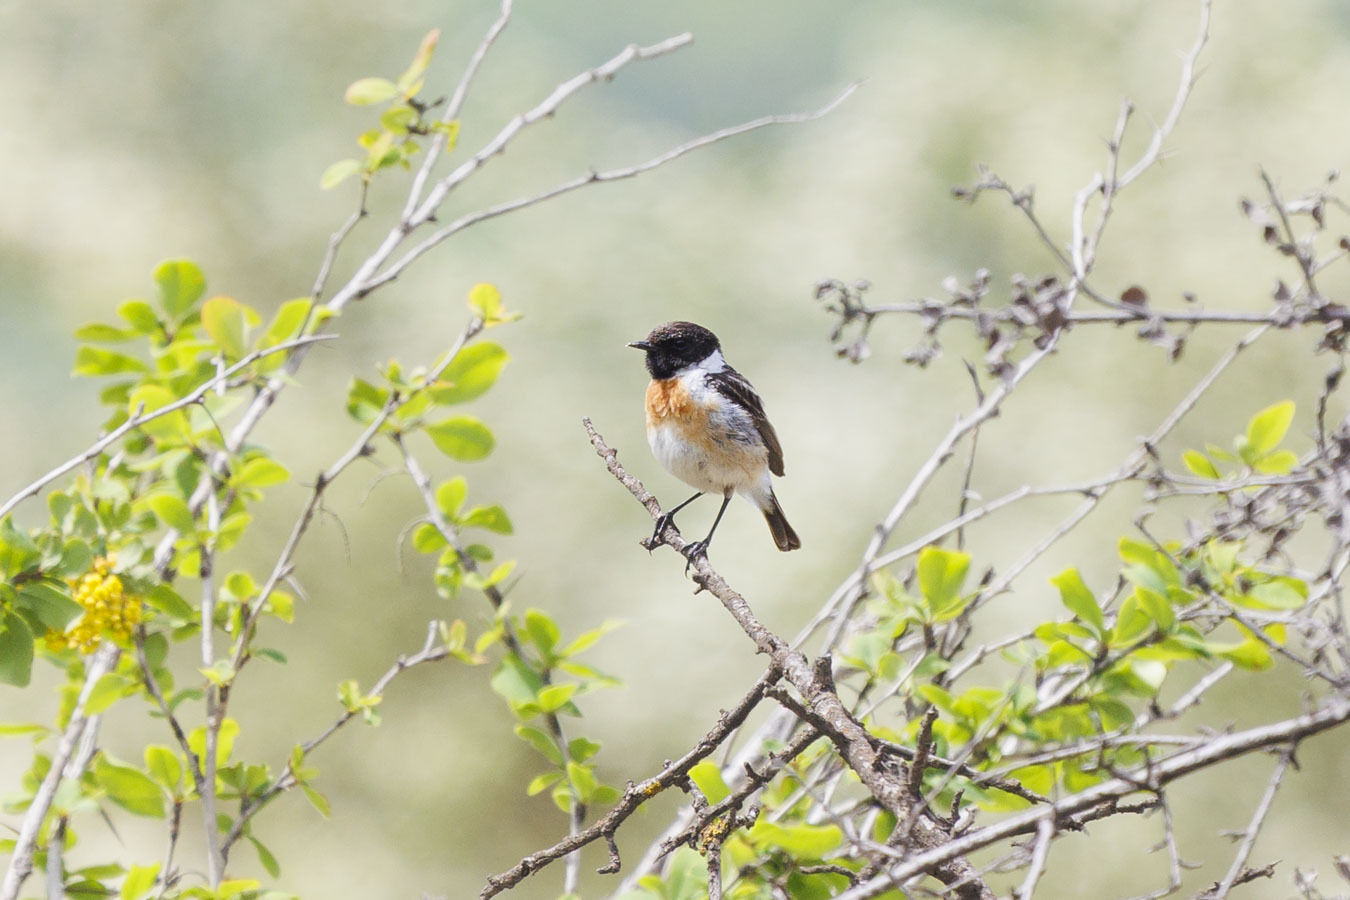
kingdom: Animalia
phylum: Chordata
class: Aves
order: Passeriformes
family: Muscicapidae
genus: Saxicola
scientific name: Saxicola maurus
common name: Siberian stonechat
